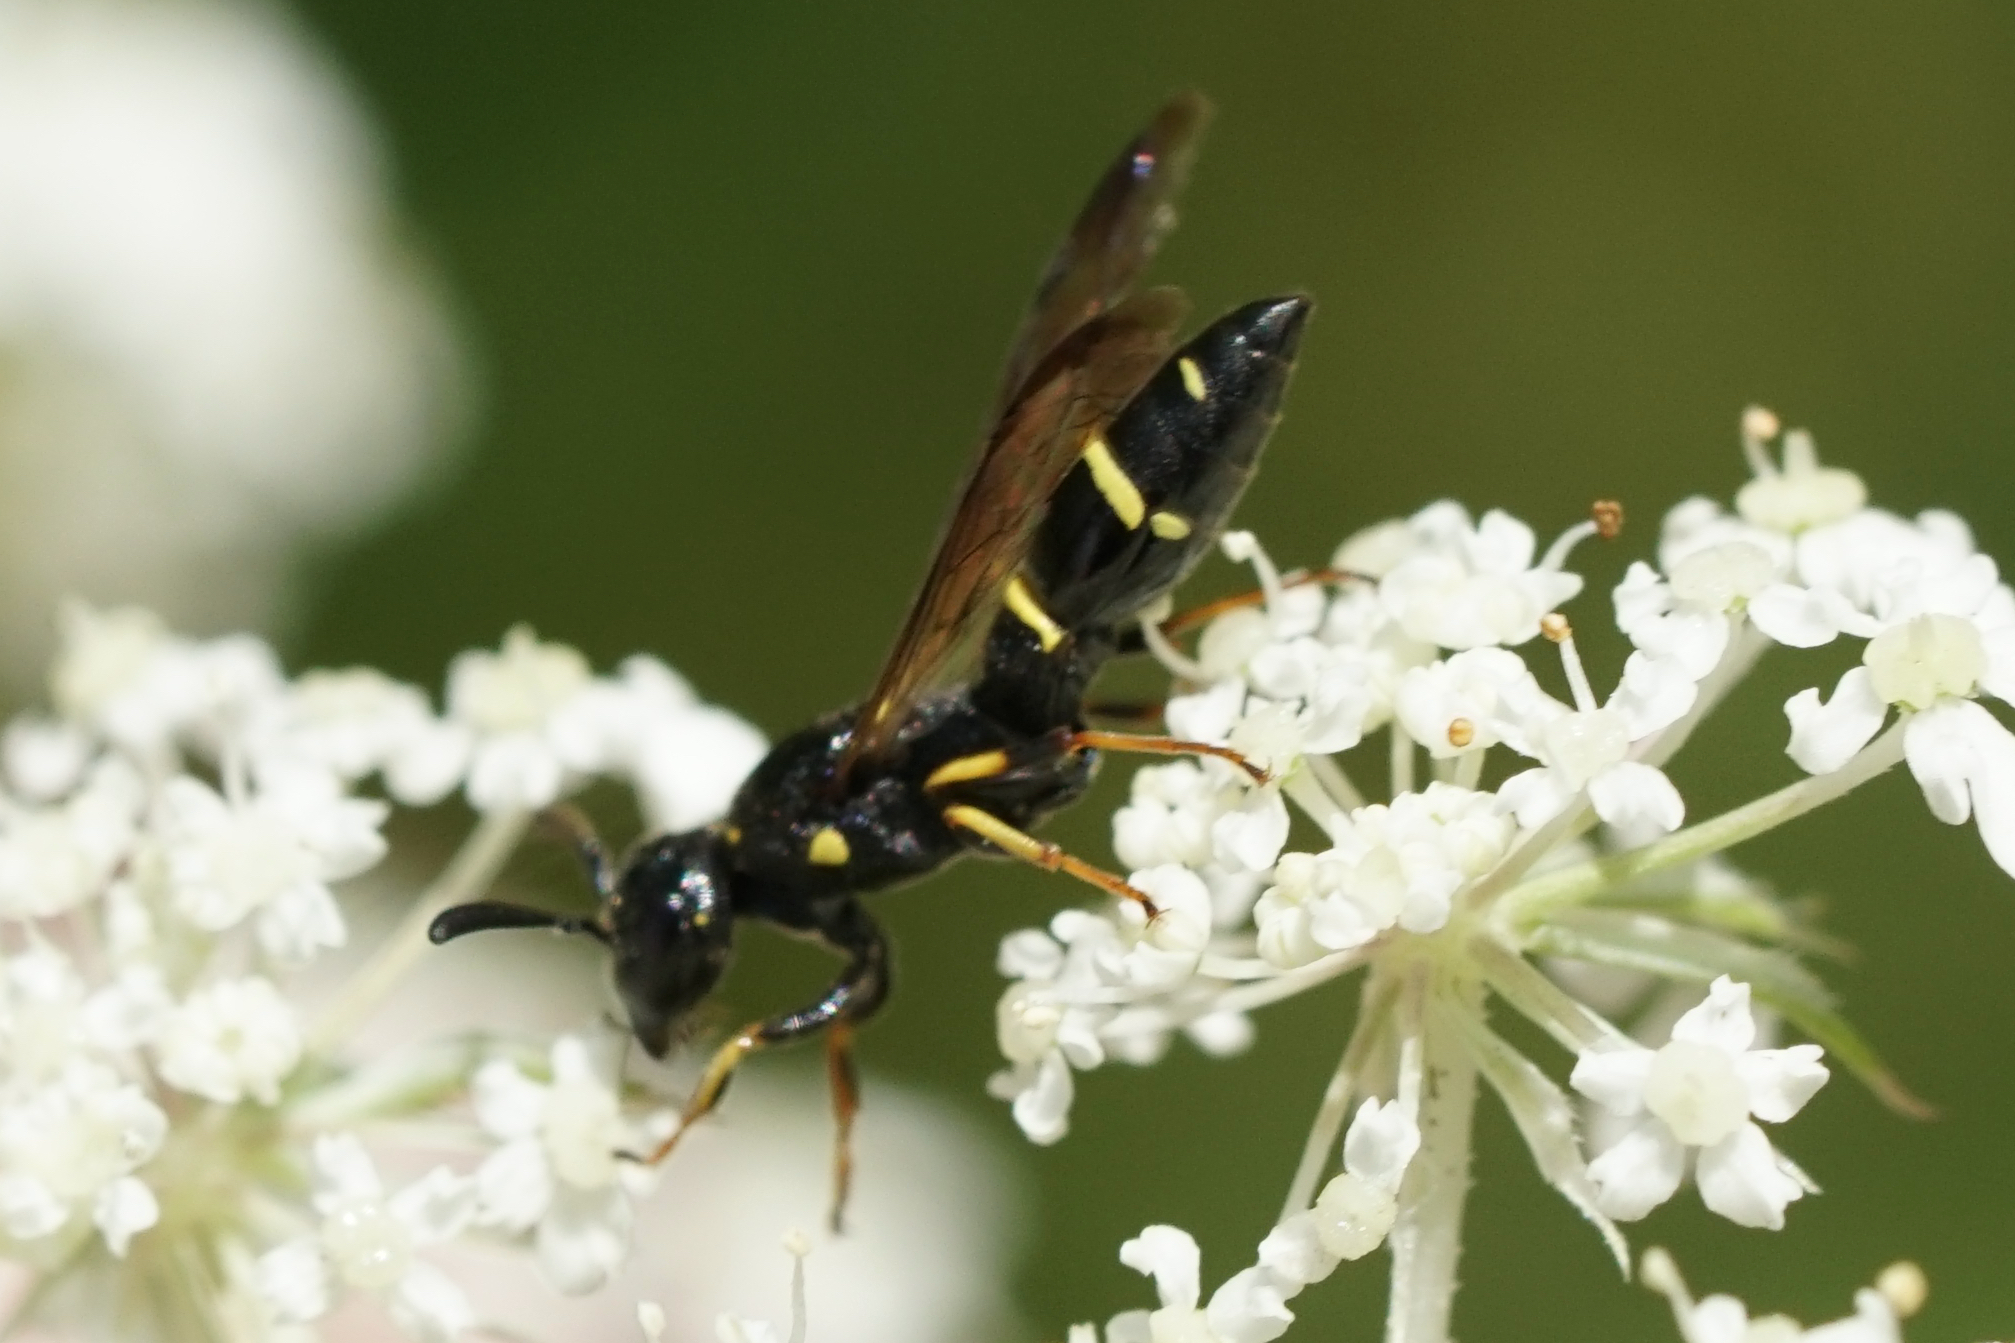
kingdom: Animalia
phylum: Arthropoda
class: Insecta
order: Hymenoptera
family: Eumenidae
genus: Symmorphus
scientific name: Symmorphus
